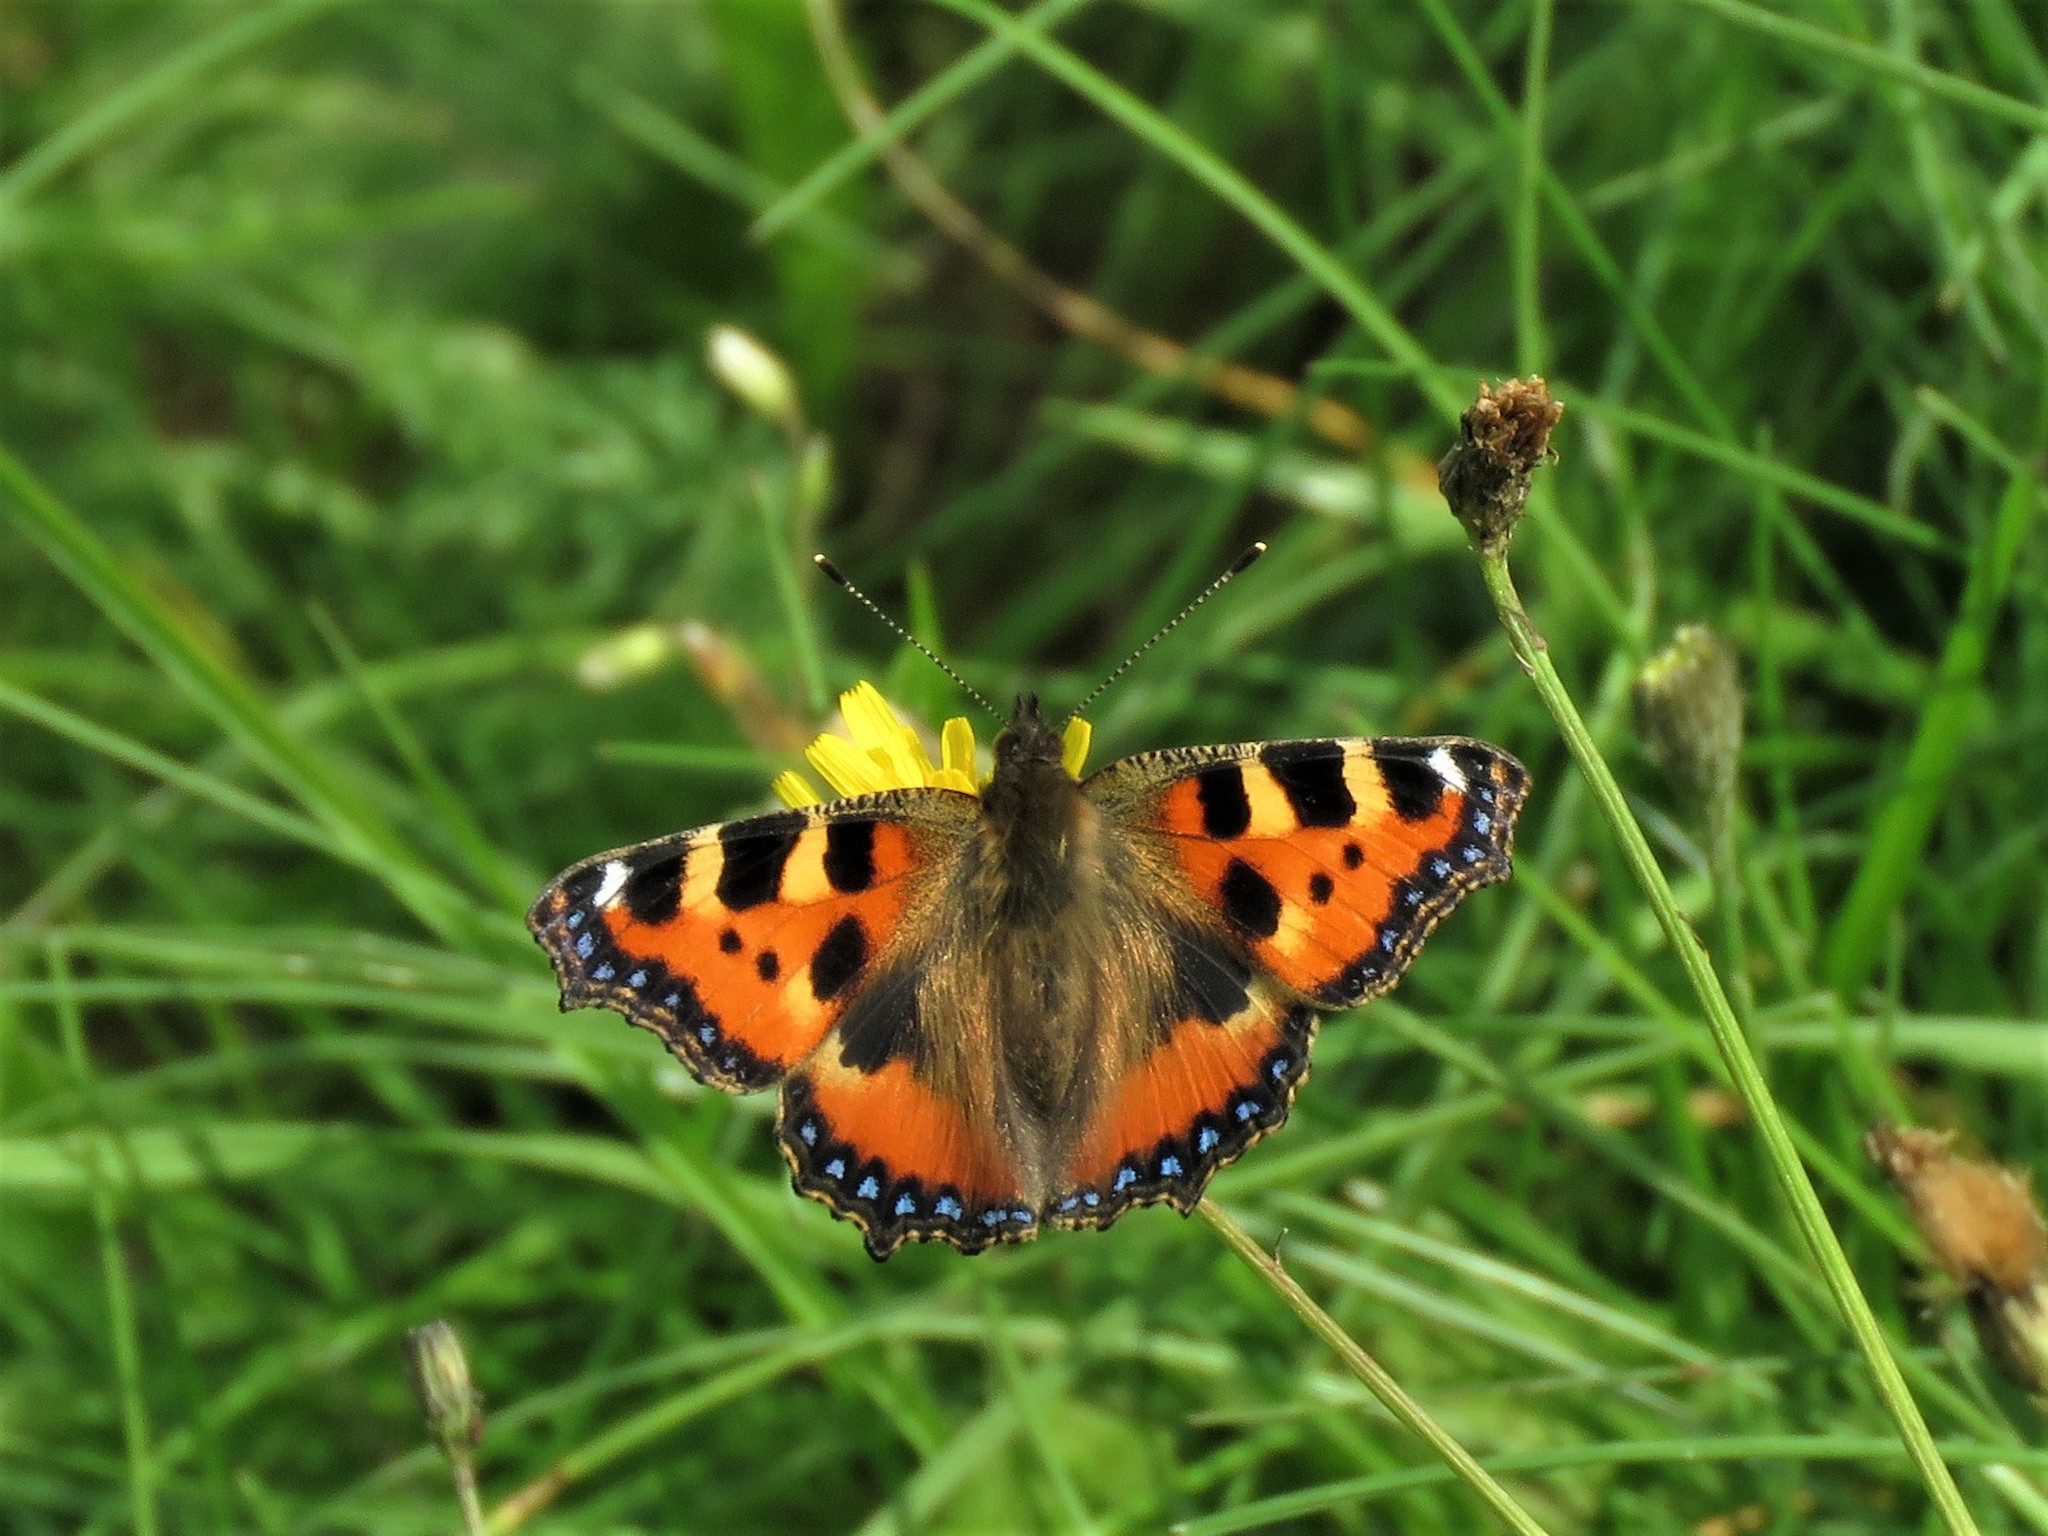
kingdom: Animalia
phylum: Arthropoda
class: Insecta
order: Lepidoptera
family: Nymphalidae
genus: Aglais
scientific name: Aglais urticae
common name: Small tortoiseshell
